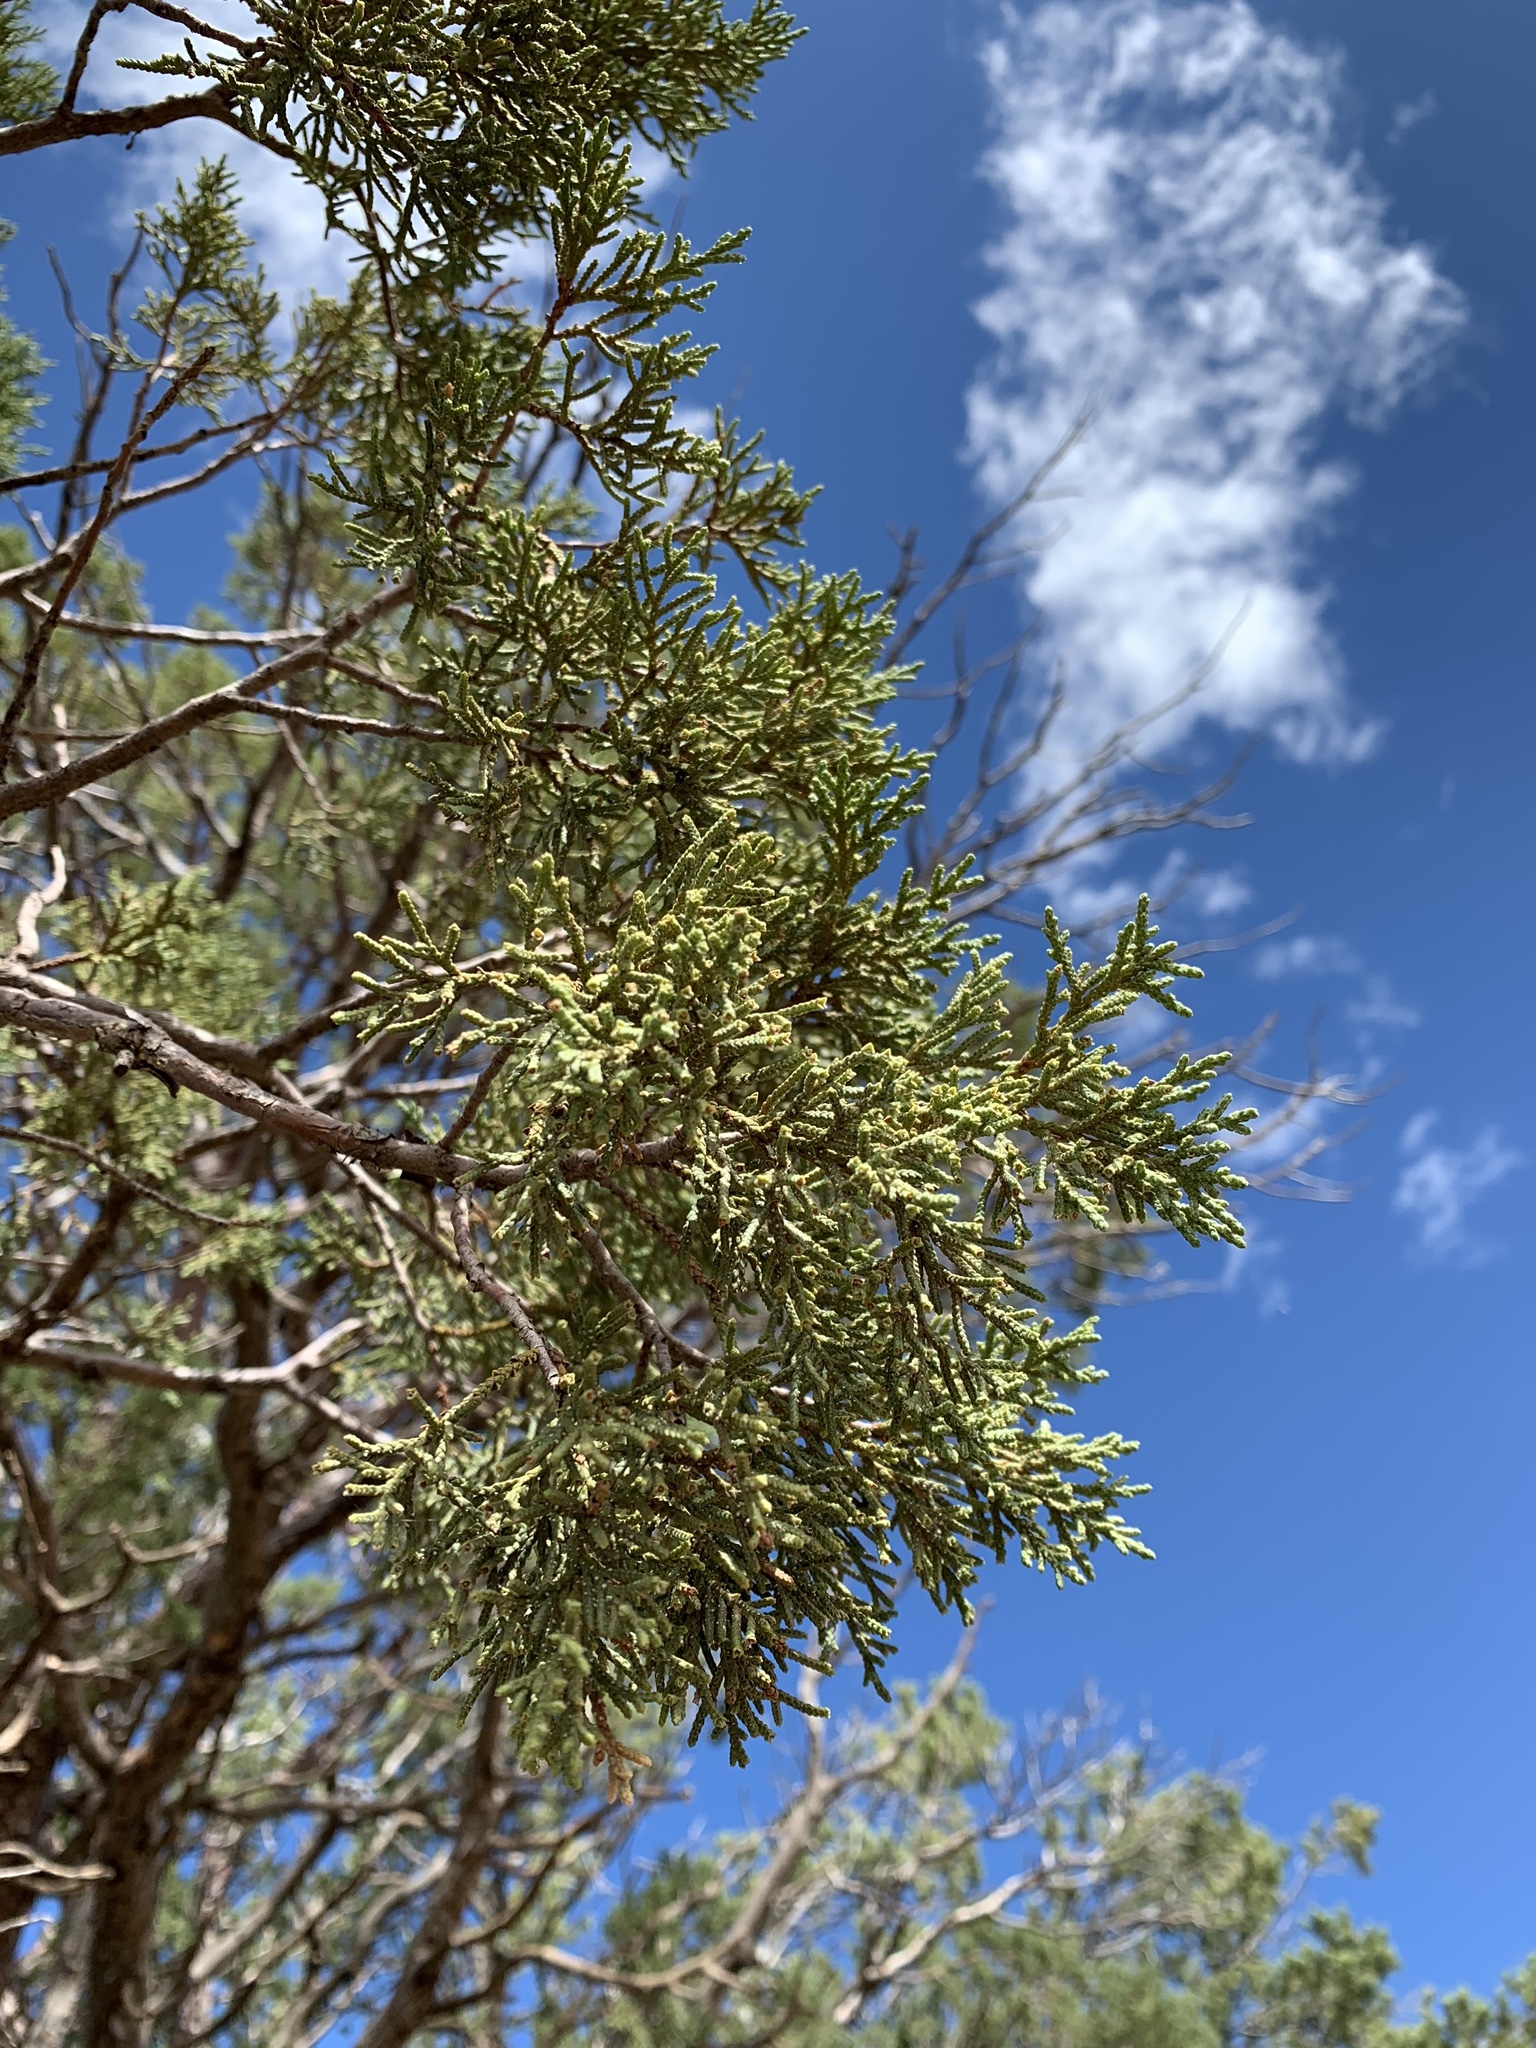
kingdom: Plantae
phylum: Tracheophyta
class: Pinopsida
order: Pinales
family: Cupressaceae
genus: Juniperus
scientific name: Juniperus deppeana
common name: Alligator juniper
